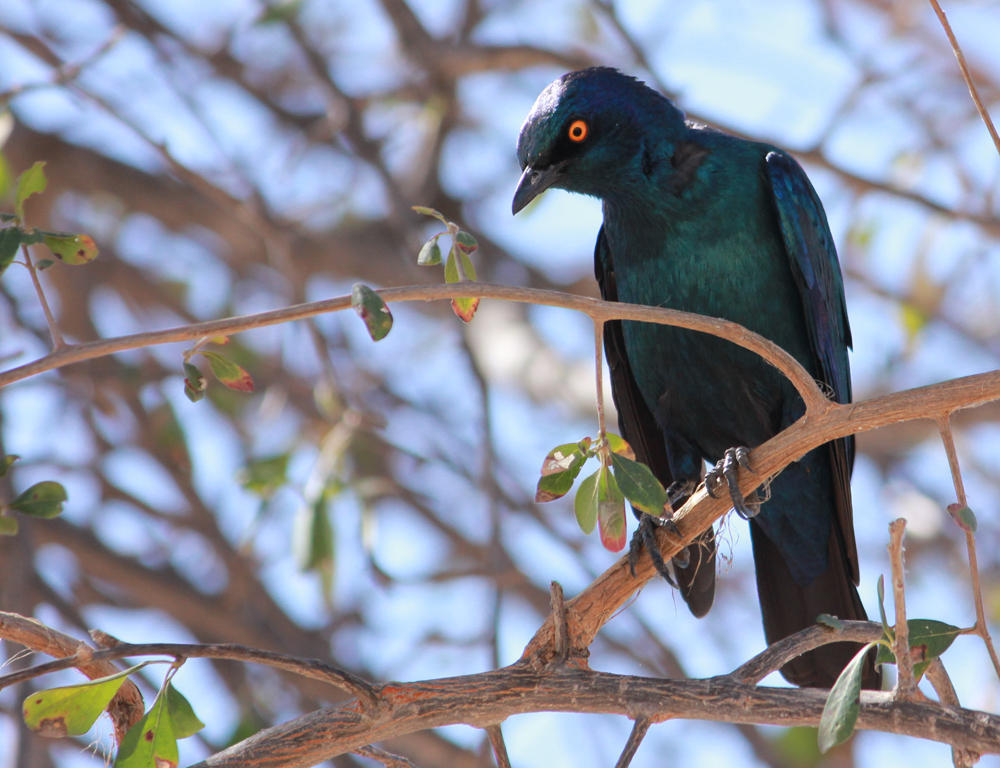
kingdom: Animalia
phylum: Chordata
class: Aves
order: Passeriformes
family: Sturnidae
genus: Lamprotornis
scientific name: Lamprotornis chalybaeus
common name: Greater blue-eared starling
